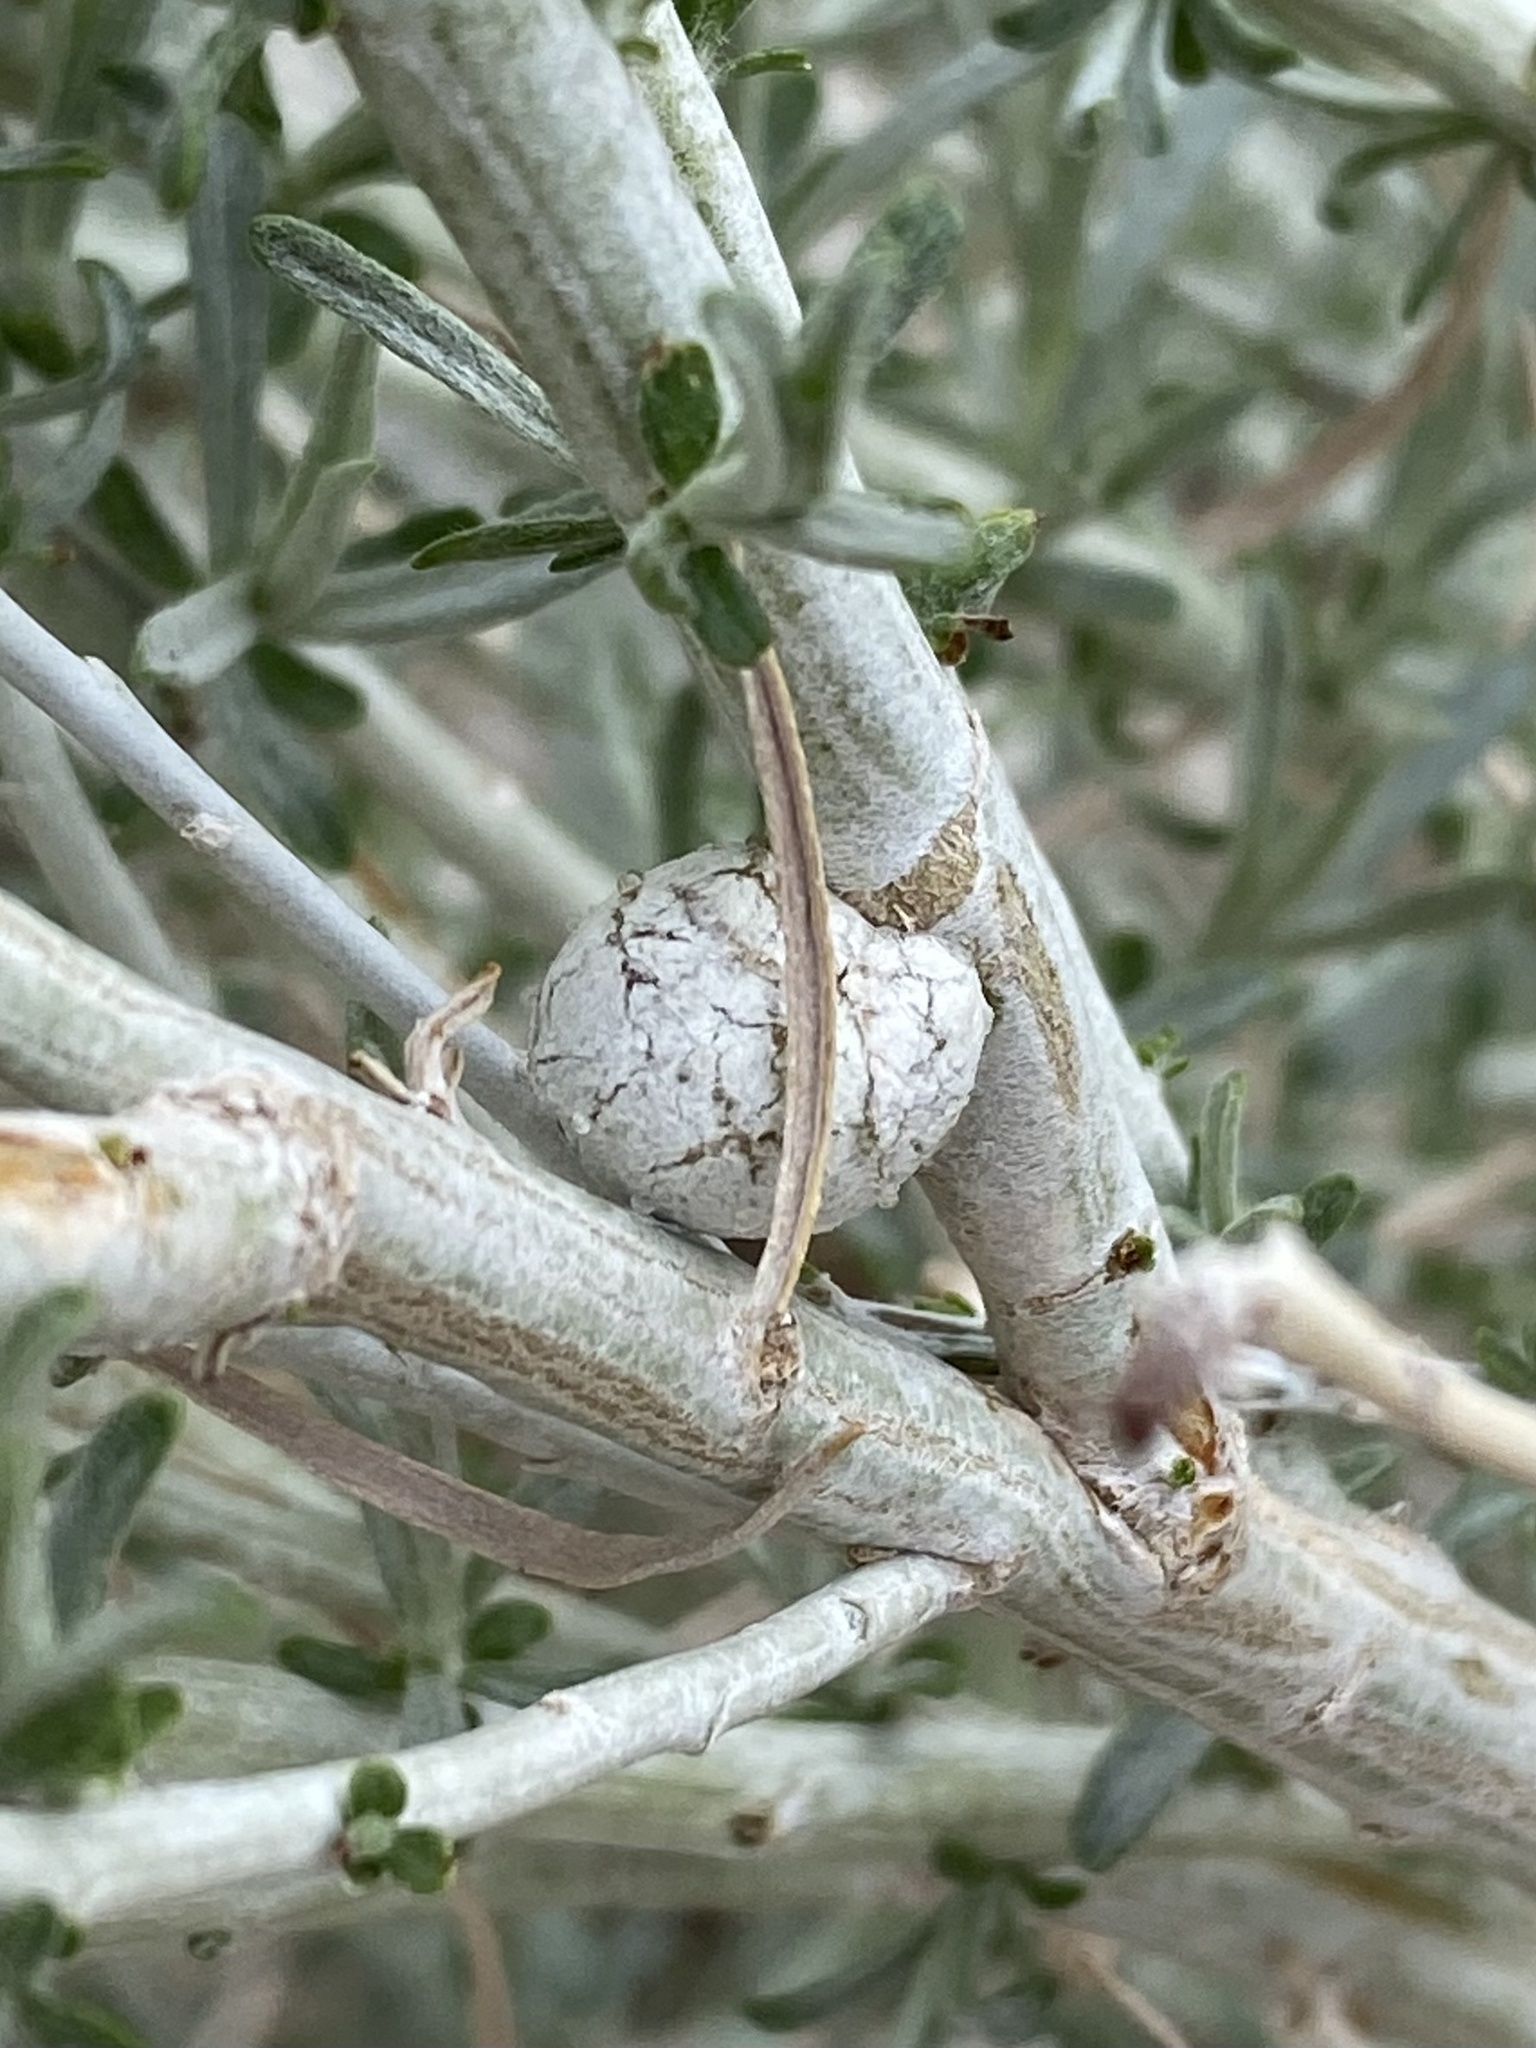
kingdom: Animalia
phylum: Arthropoda
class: Insecta
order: Diptera
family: Tephritidae
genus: Aciurina
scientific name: Aciurina trixa
